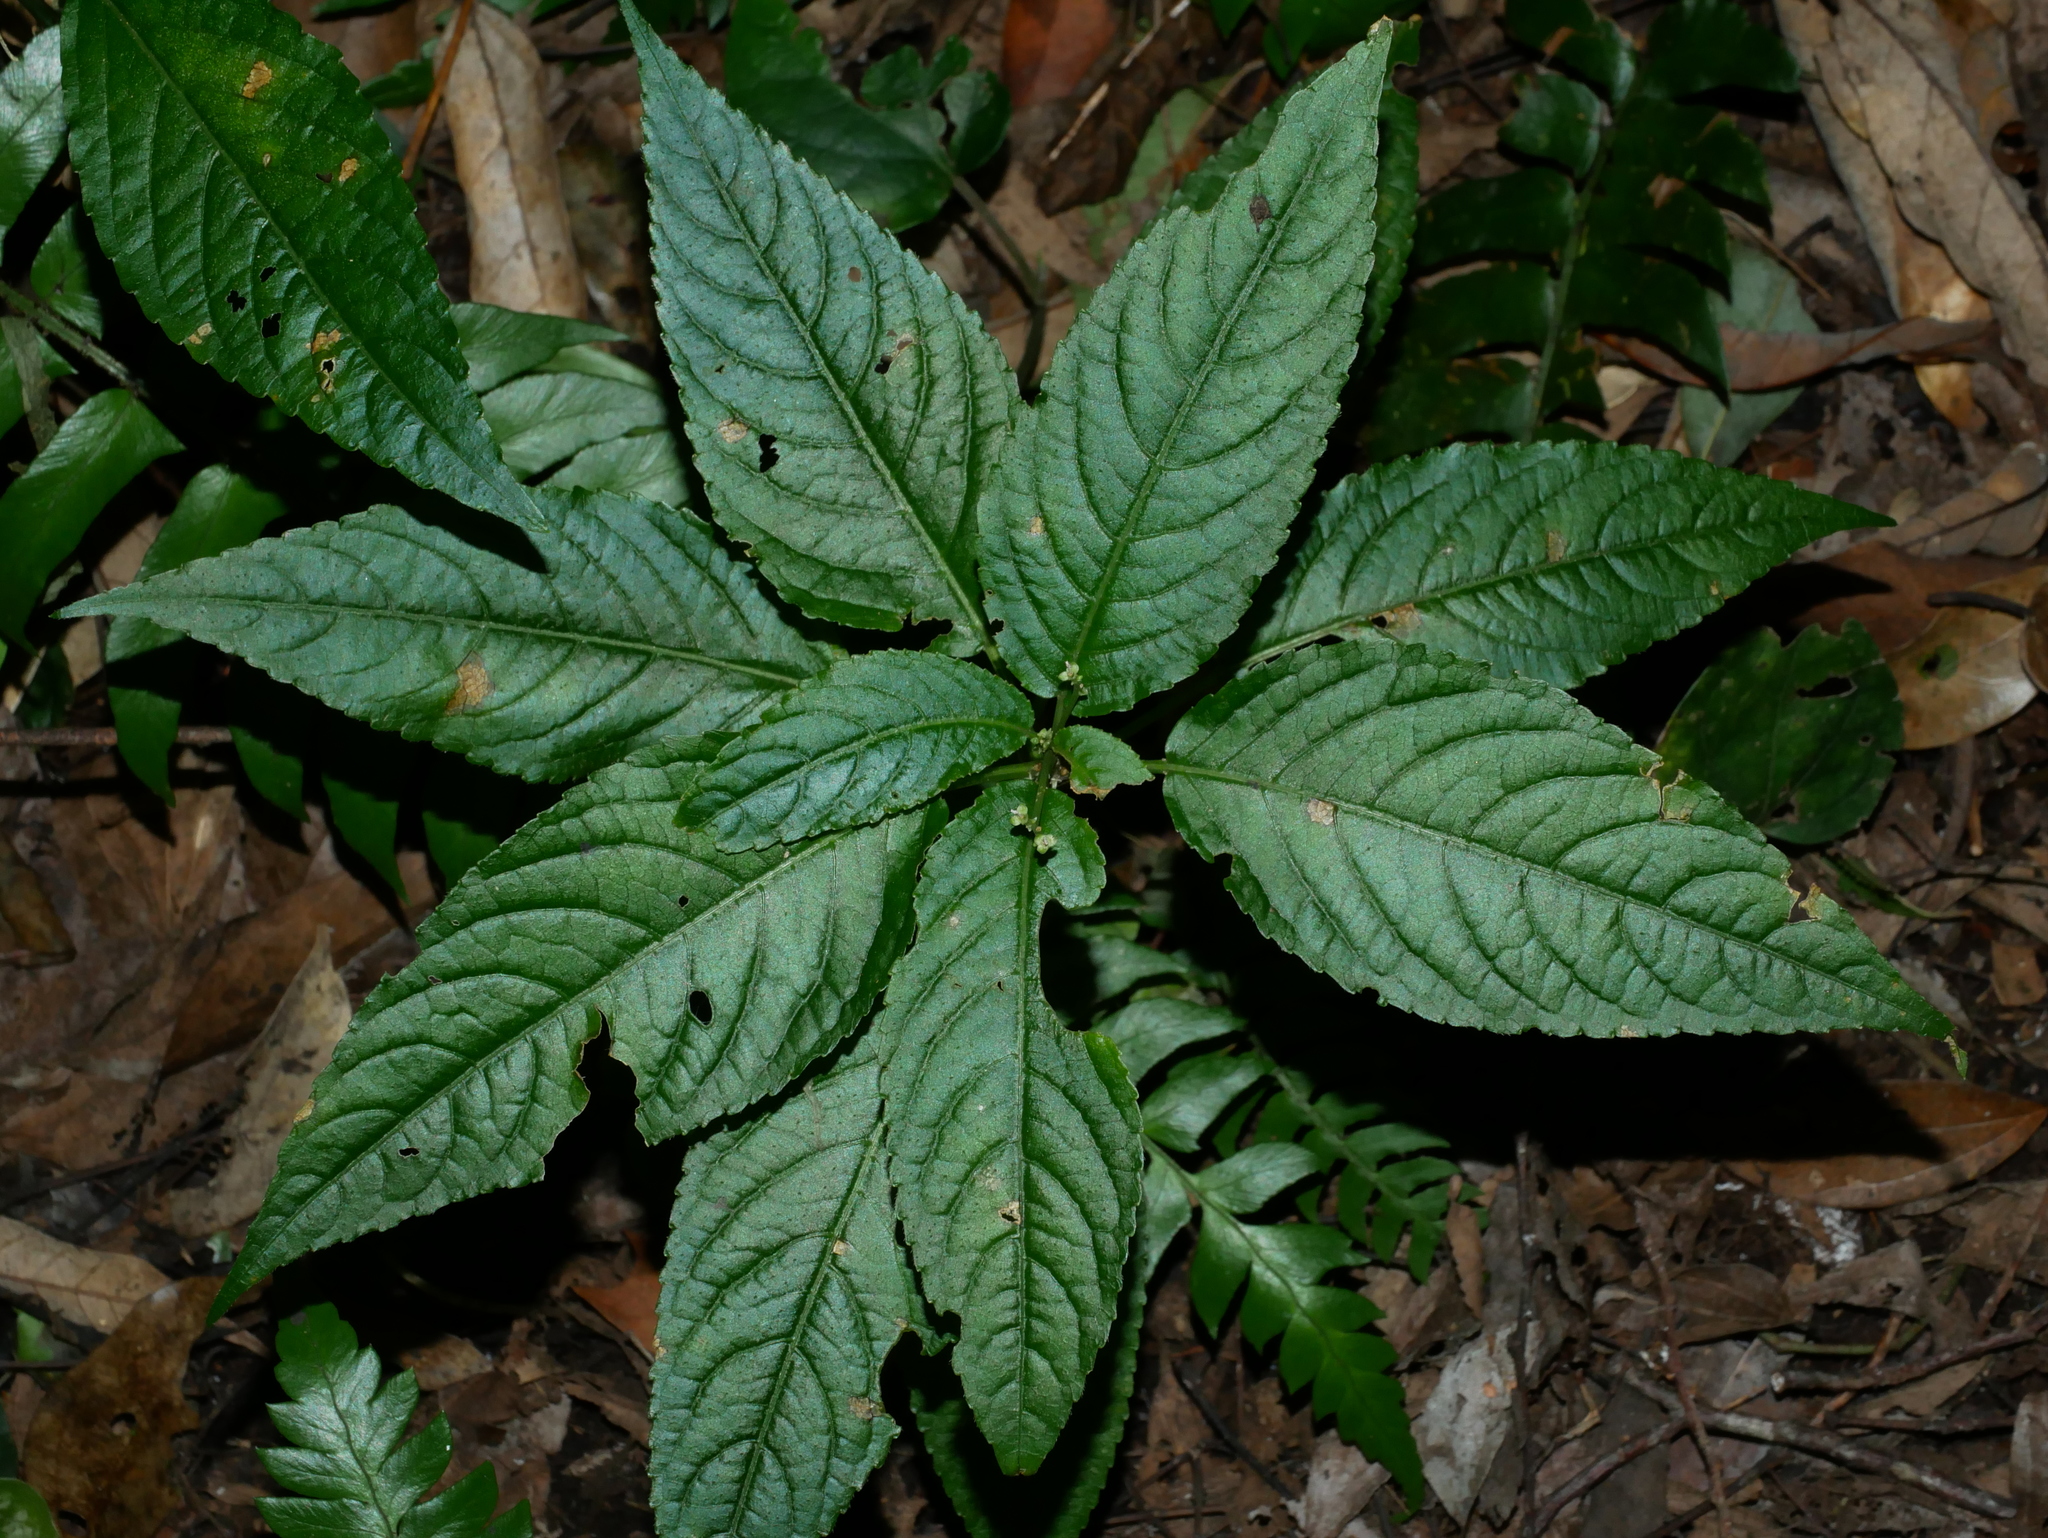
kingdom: Plantae
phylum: Tracheophyta
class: Magnoliopsida
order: Malpighiales
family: Euphorbiaceae
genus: Mercurialis
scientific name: Mercurialis leiocarpa
